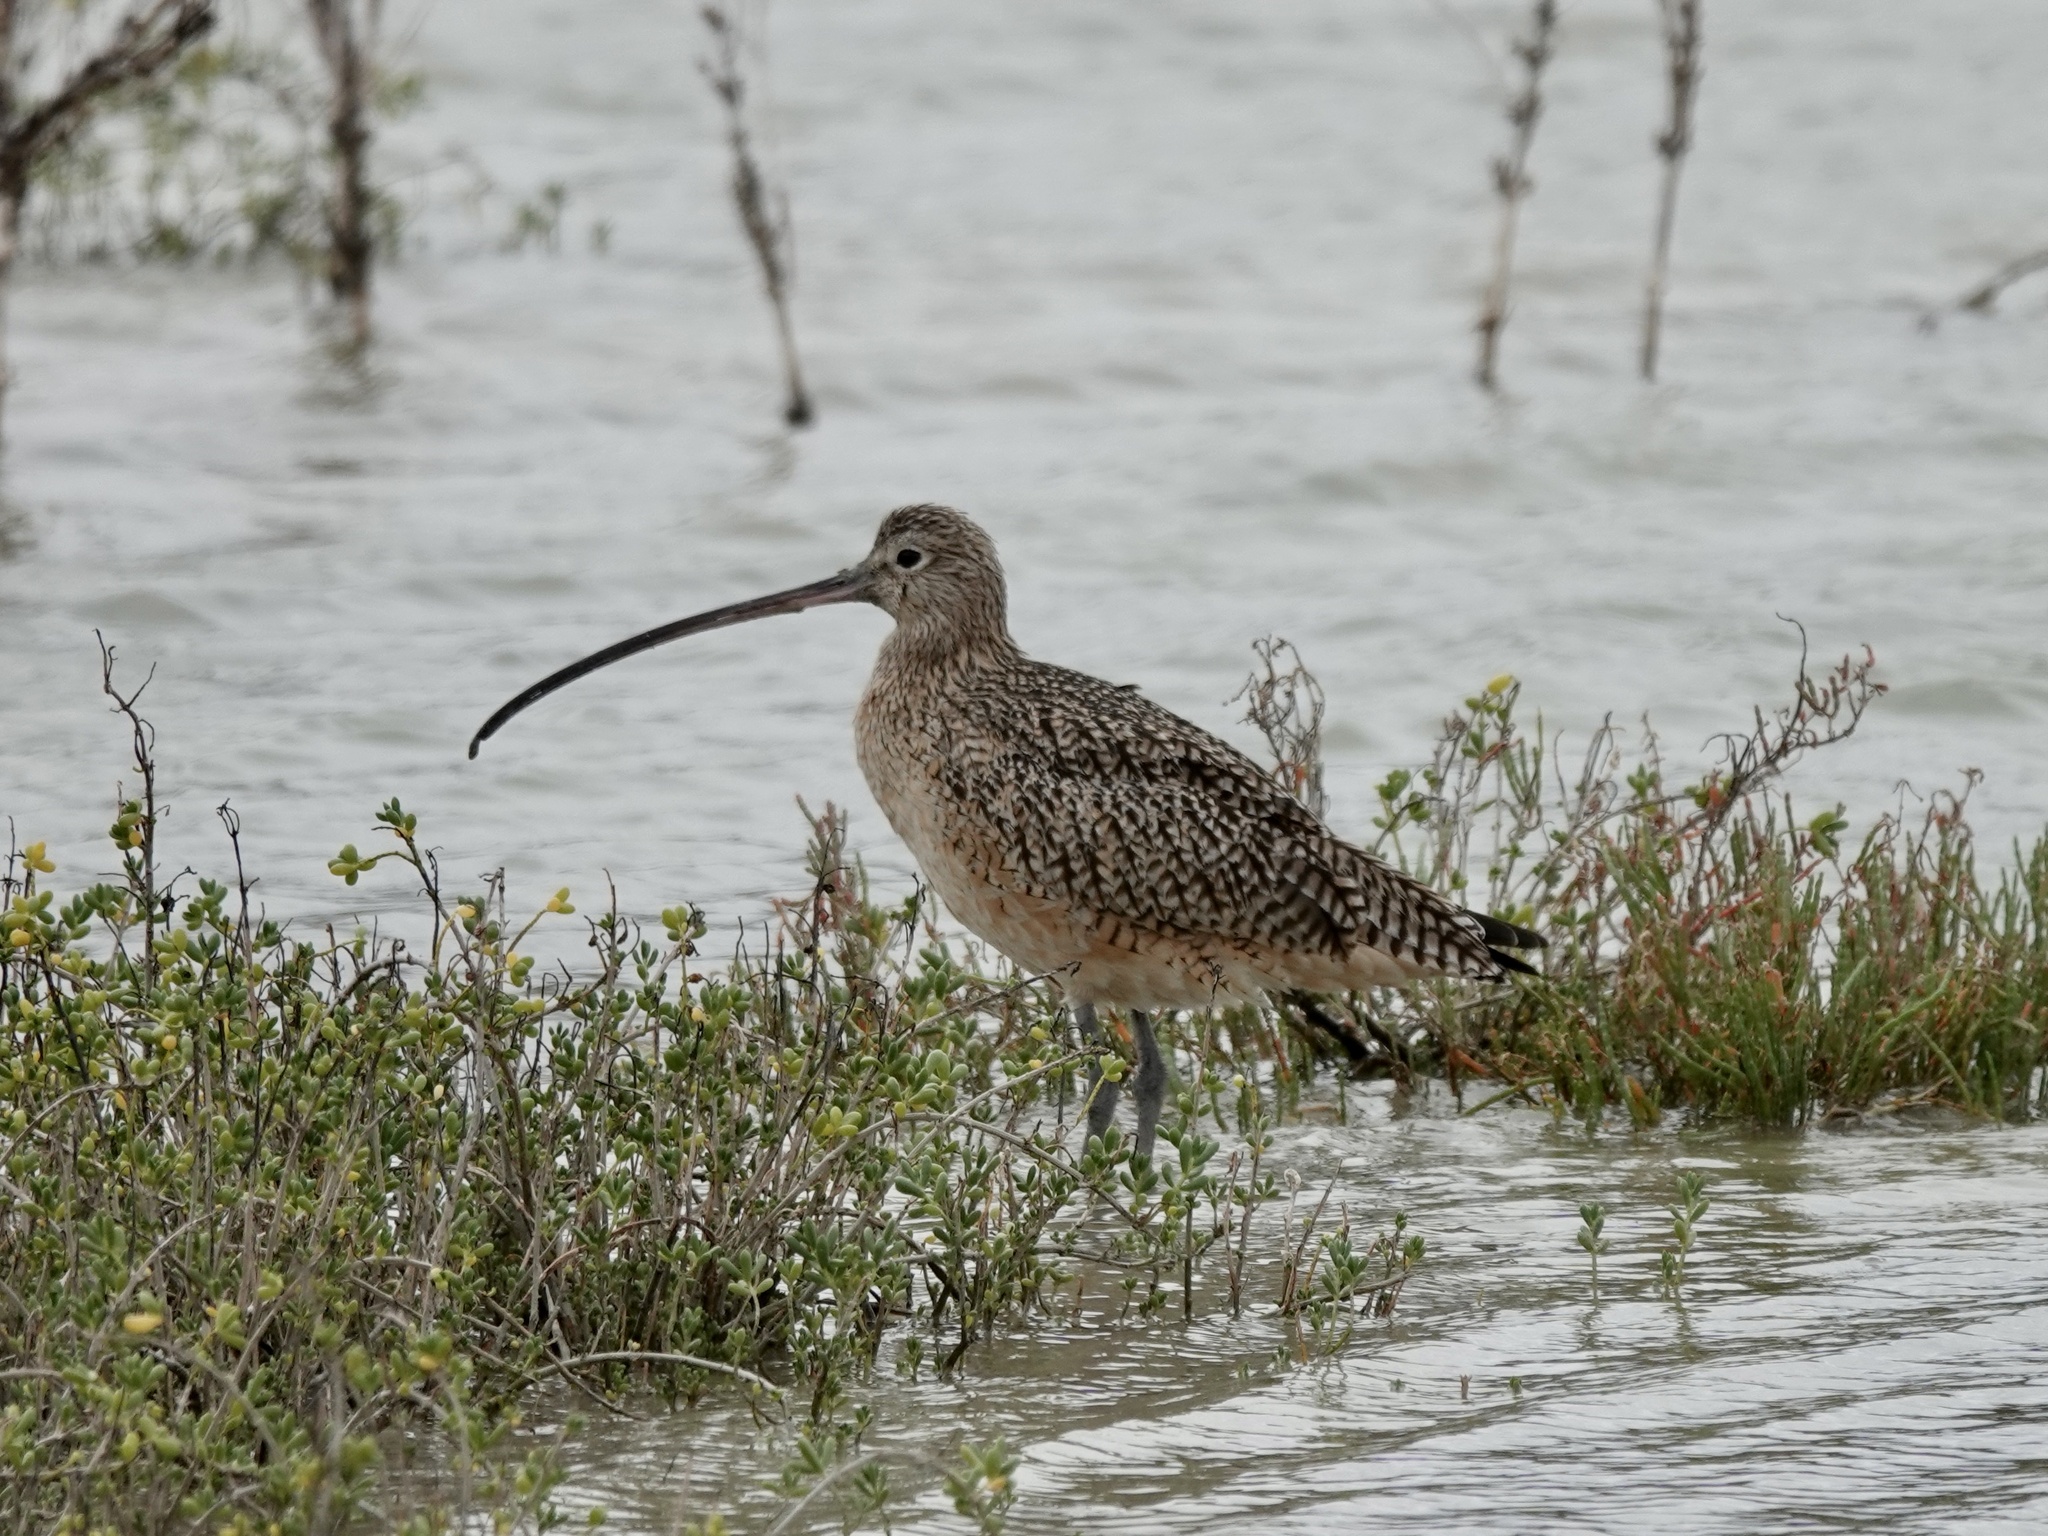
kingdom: Animalia
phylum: Chordata
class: Aves
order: Charadriiformes
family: Scolopacidae
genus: Numenius
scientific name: Numenius americanus
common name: Long-billed curlew
